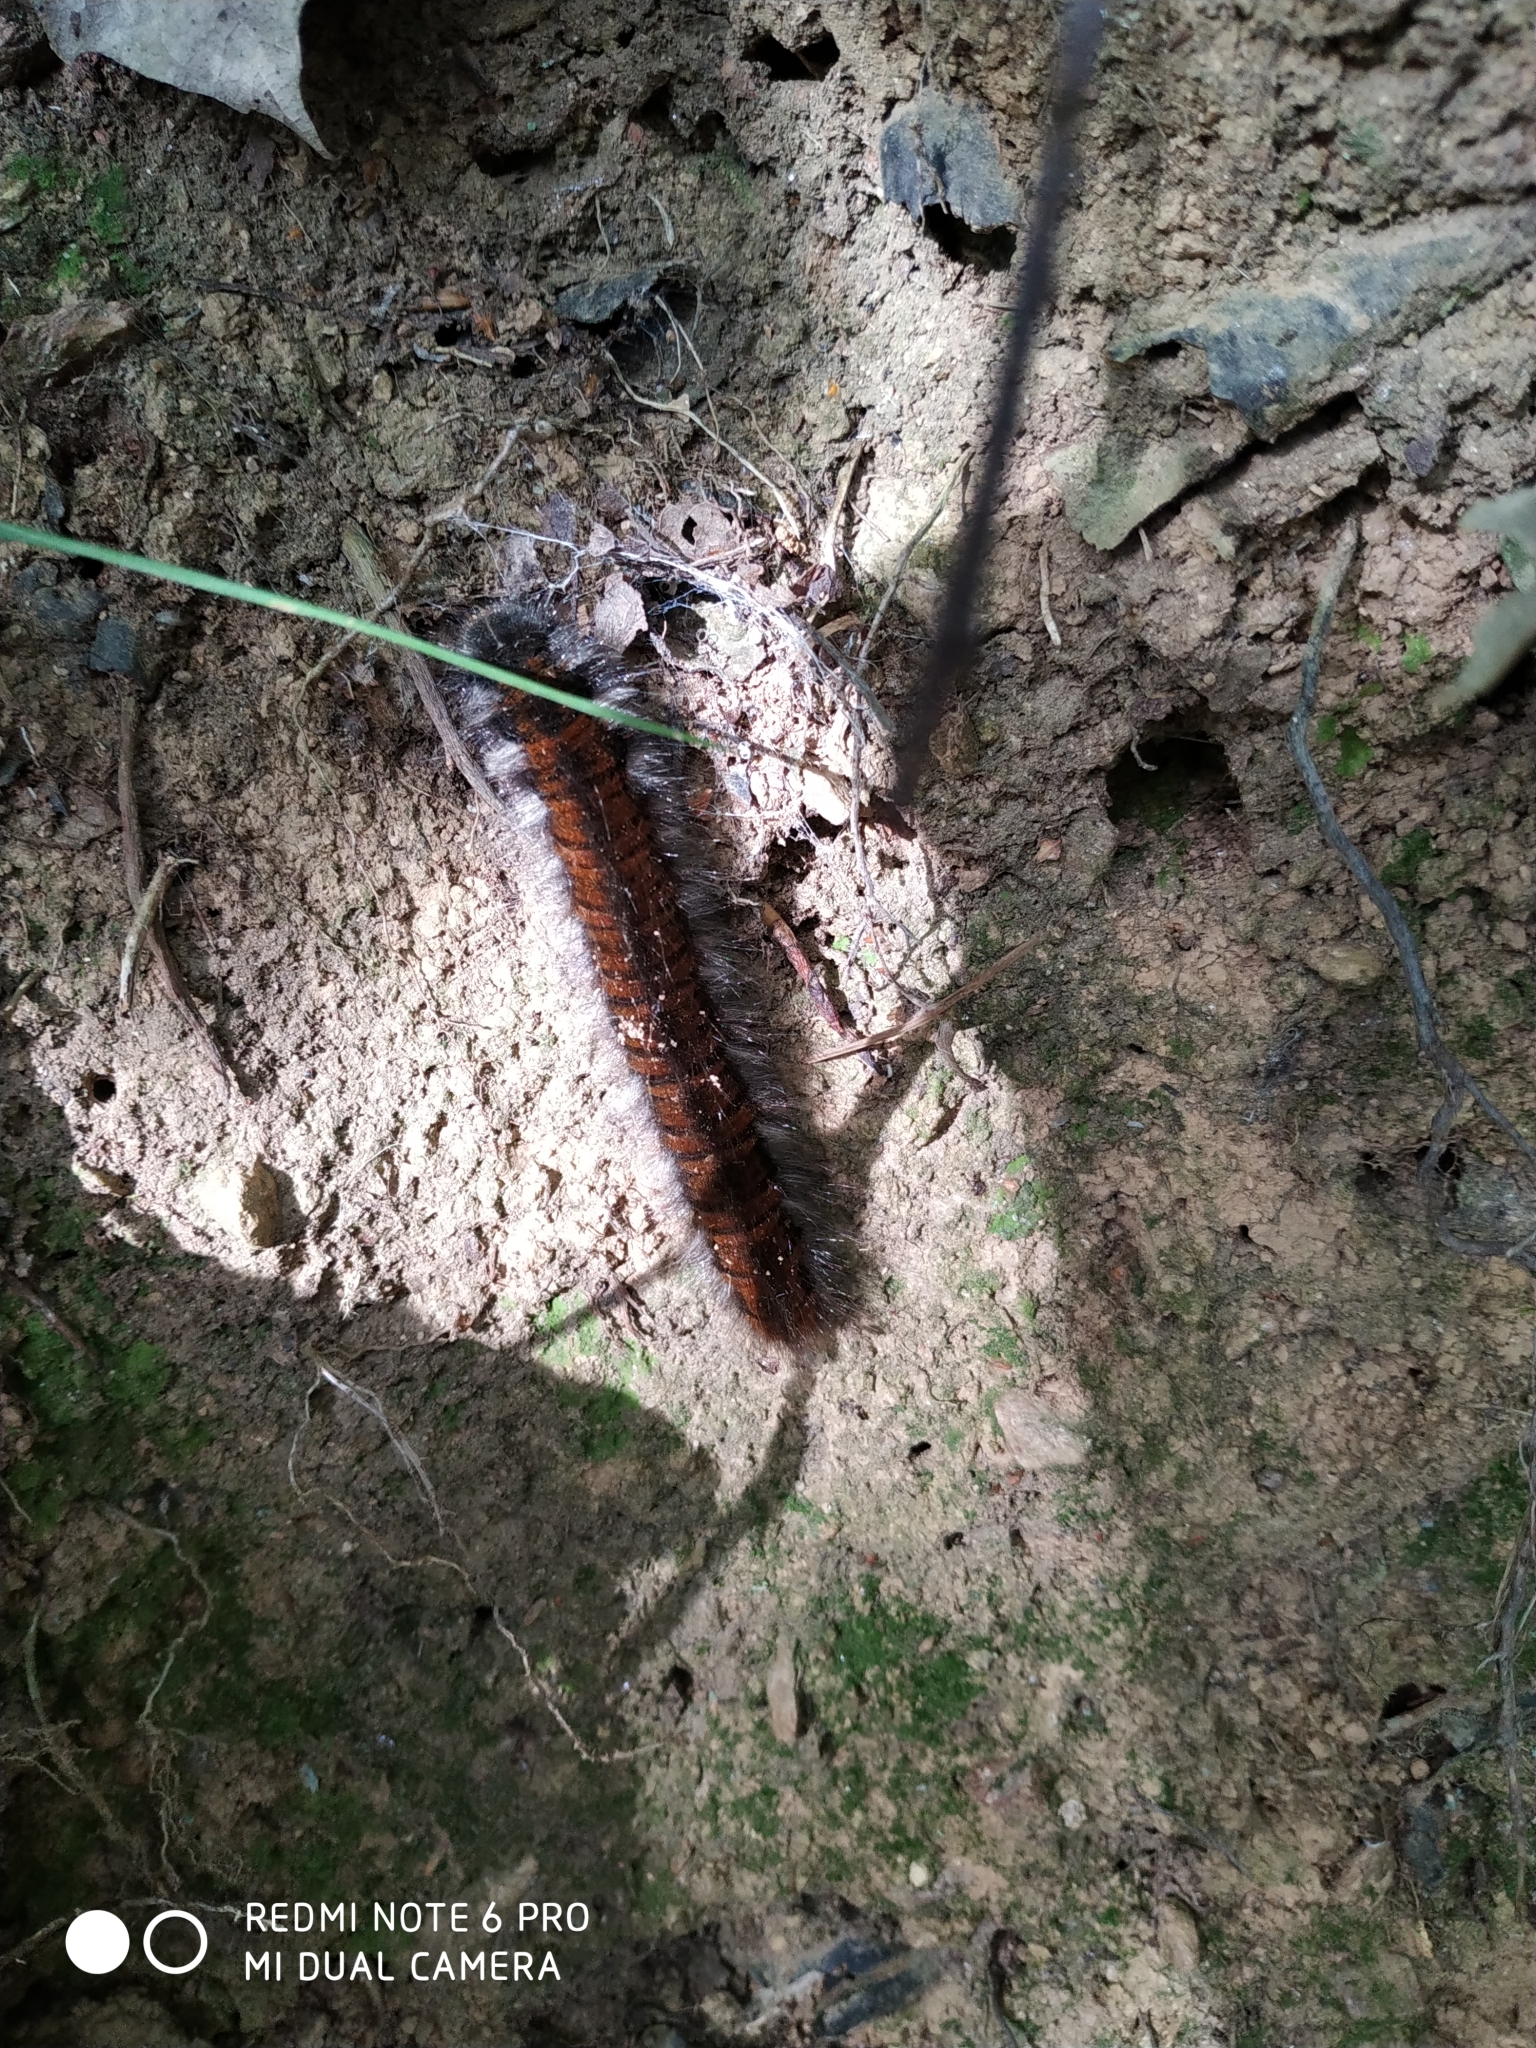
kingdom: Animalia
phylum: Arthropoda
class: Insecta
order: Lepidoptera
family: Lasiocampidae
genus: Macrothylacia
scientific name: Macrothylacia rubi
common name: Fox moth
